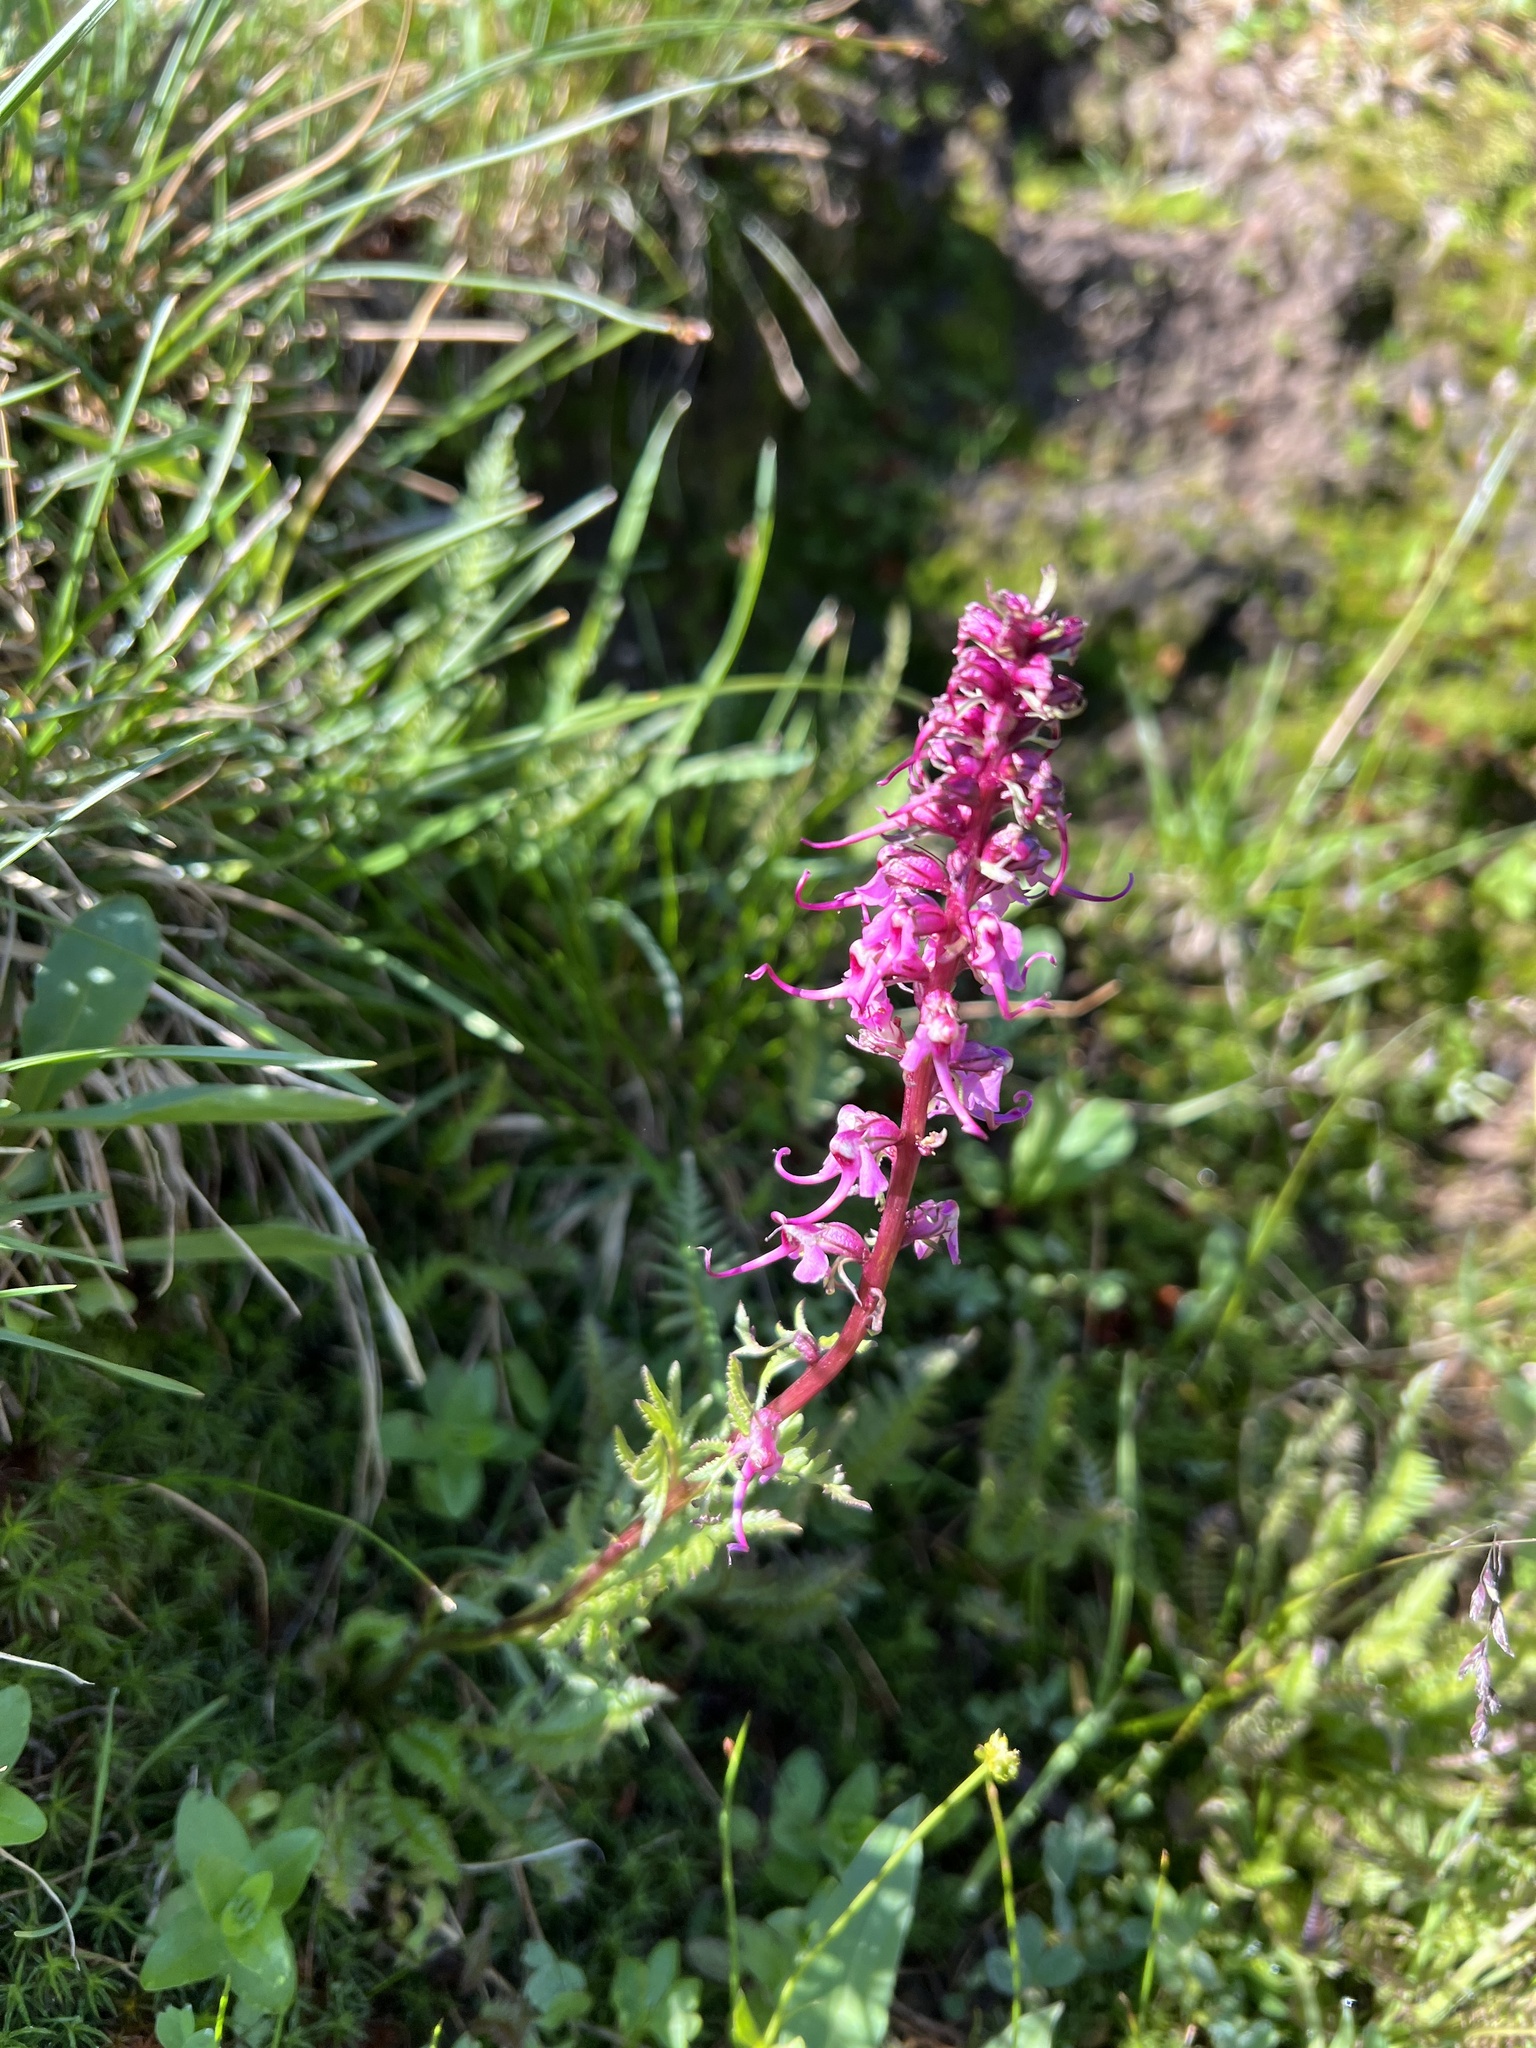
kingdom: Plantae
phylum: Tracheophyta
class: Magnoliopsida
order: Lamiales
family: Orobanchaceae
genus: Pedicularis
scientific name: Pedicularis groenlandica
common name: Elephant's-head
